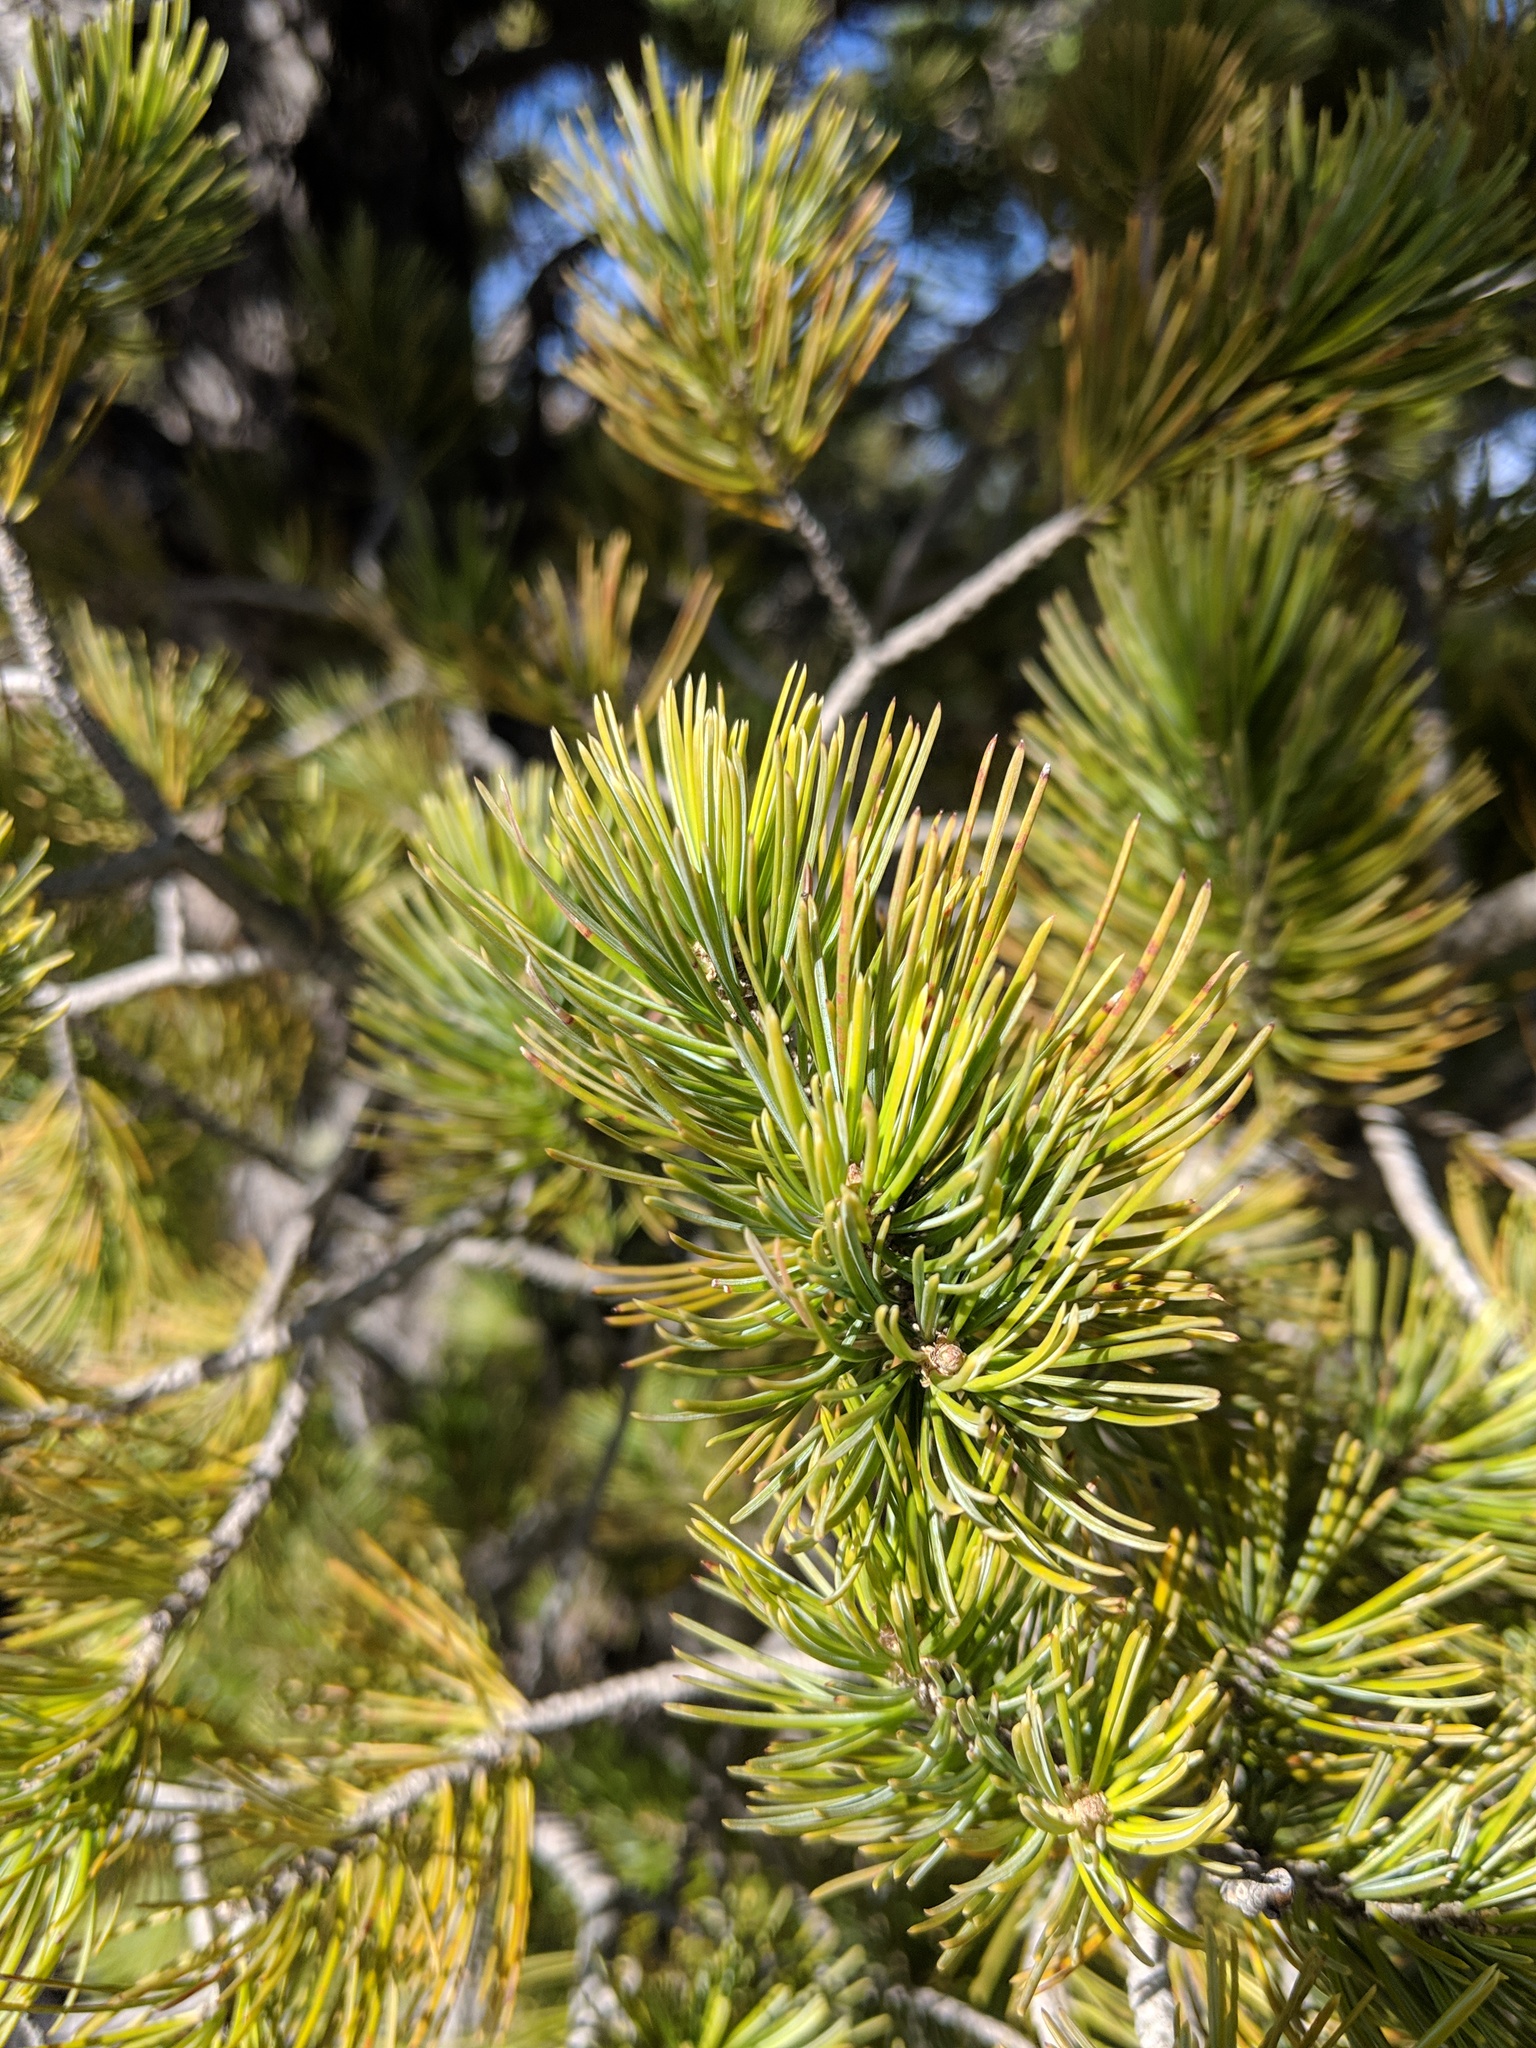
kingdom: Plantae
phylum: Tracheophyta
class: Pinopsida
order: Pinales
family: Pinaceae
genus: Pinus
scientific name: Pinus cembroides
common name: Mexican nut pine
